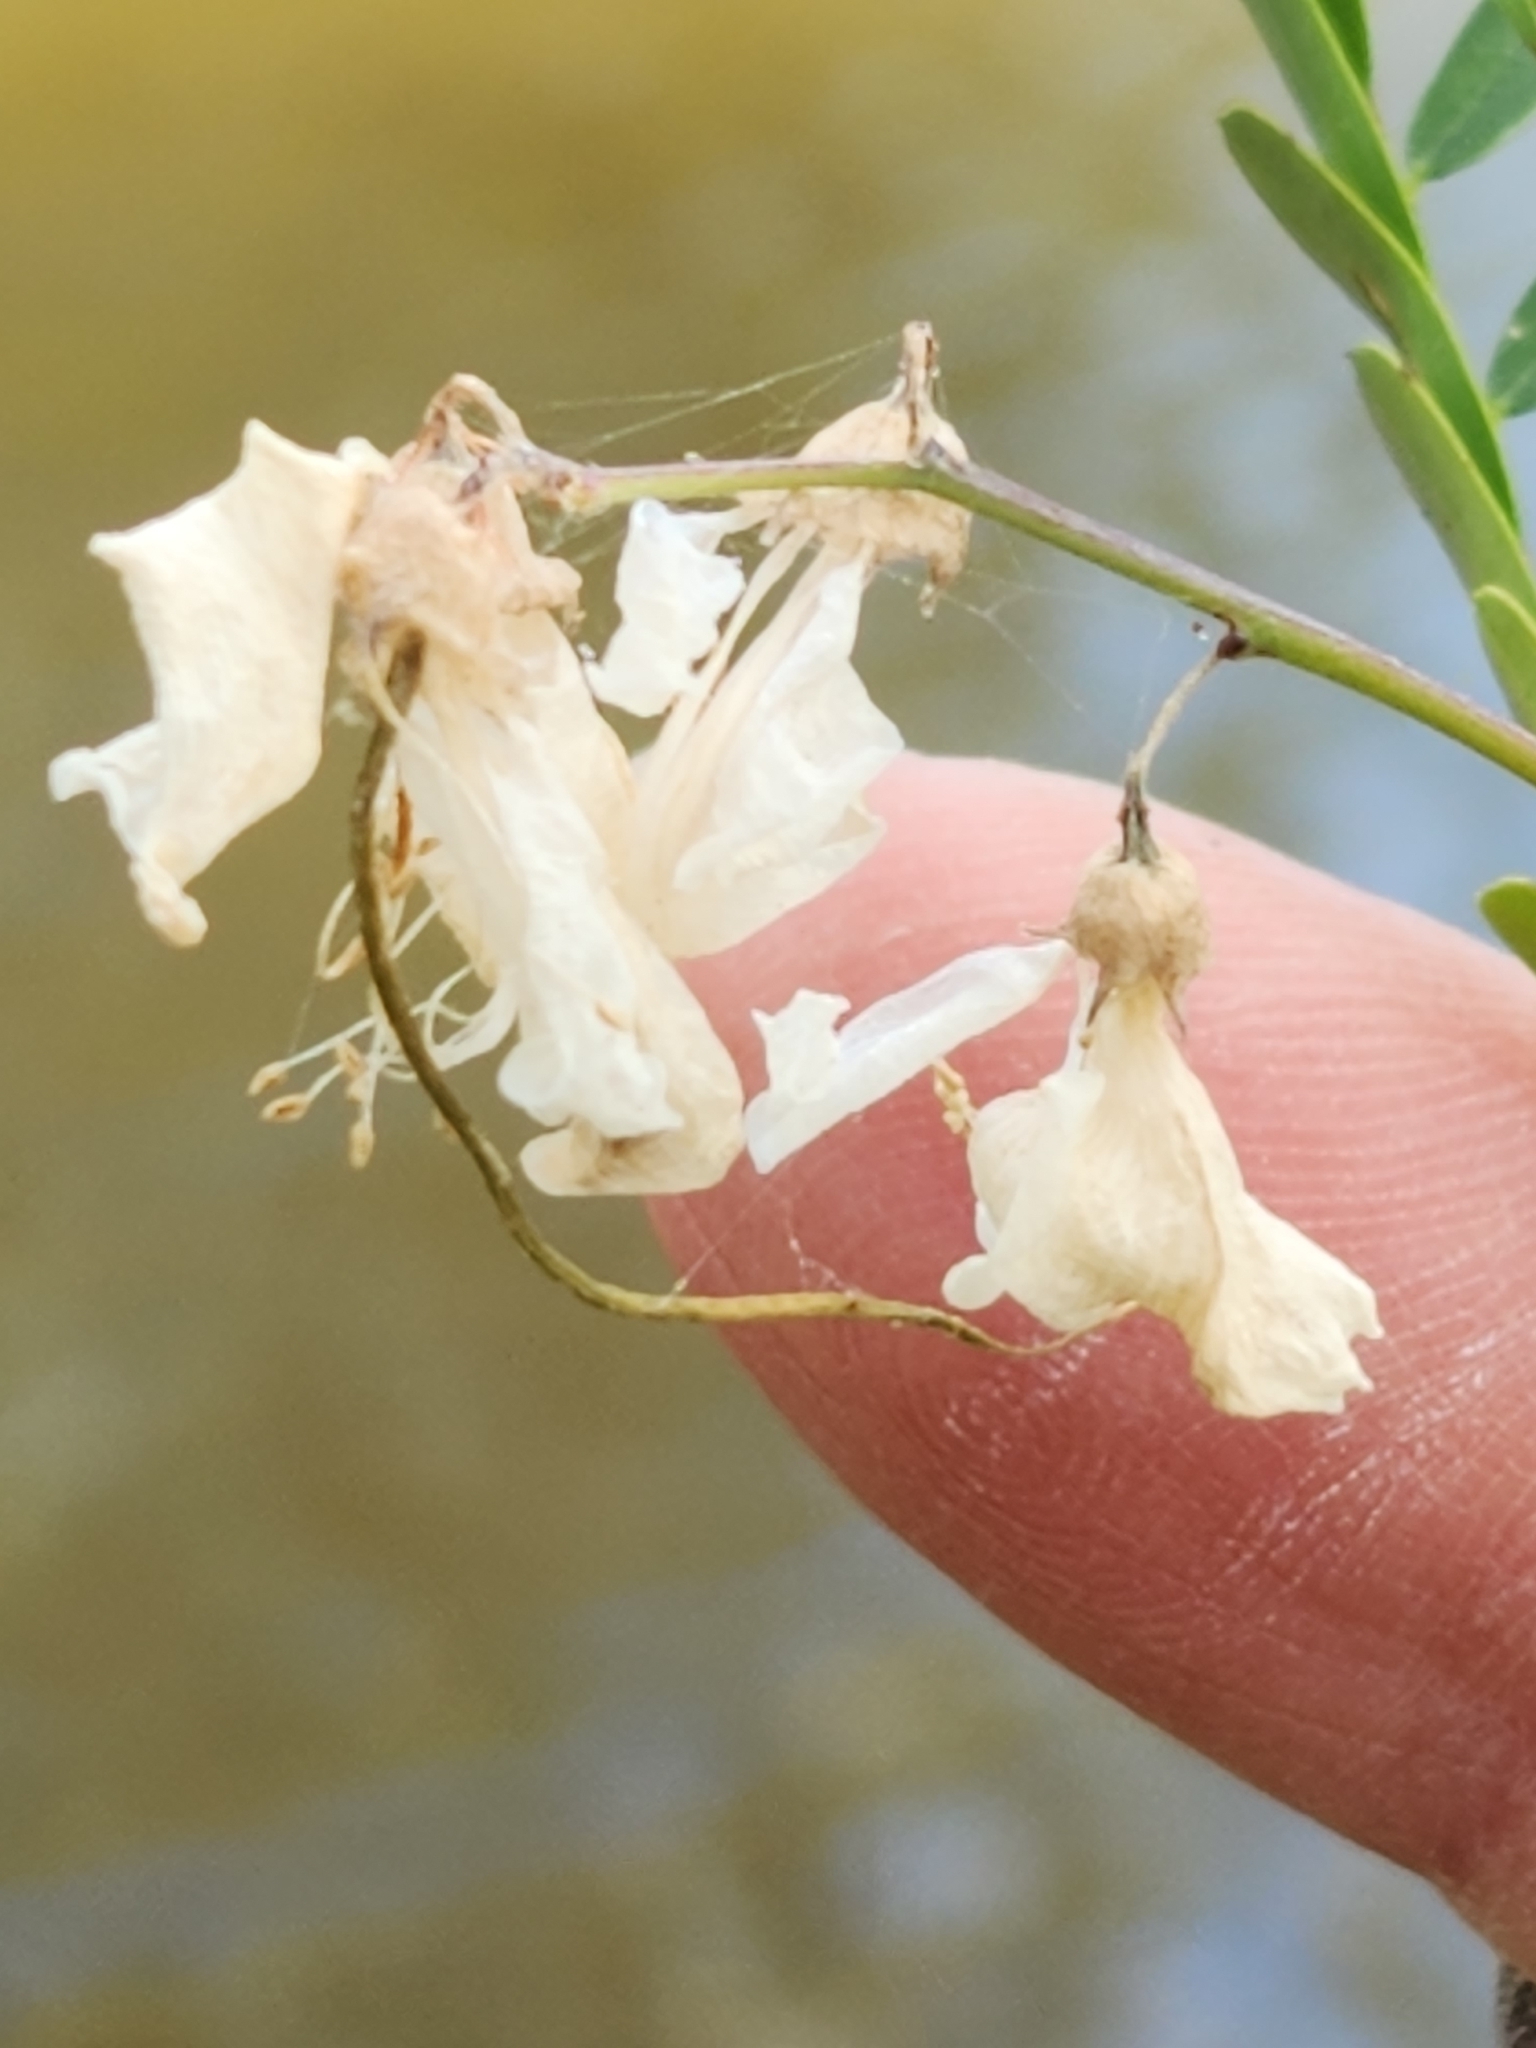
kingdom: Plantae
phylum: Tracheophyta
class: Magnoliopsida
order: Fabales
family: Fabaceae
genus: Sesbania
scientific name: Sesbania herbacea
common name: Bigpod sesbania
